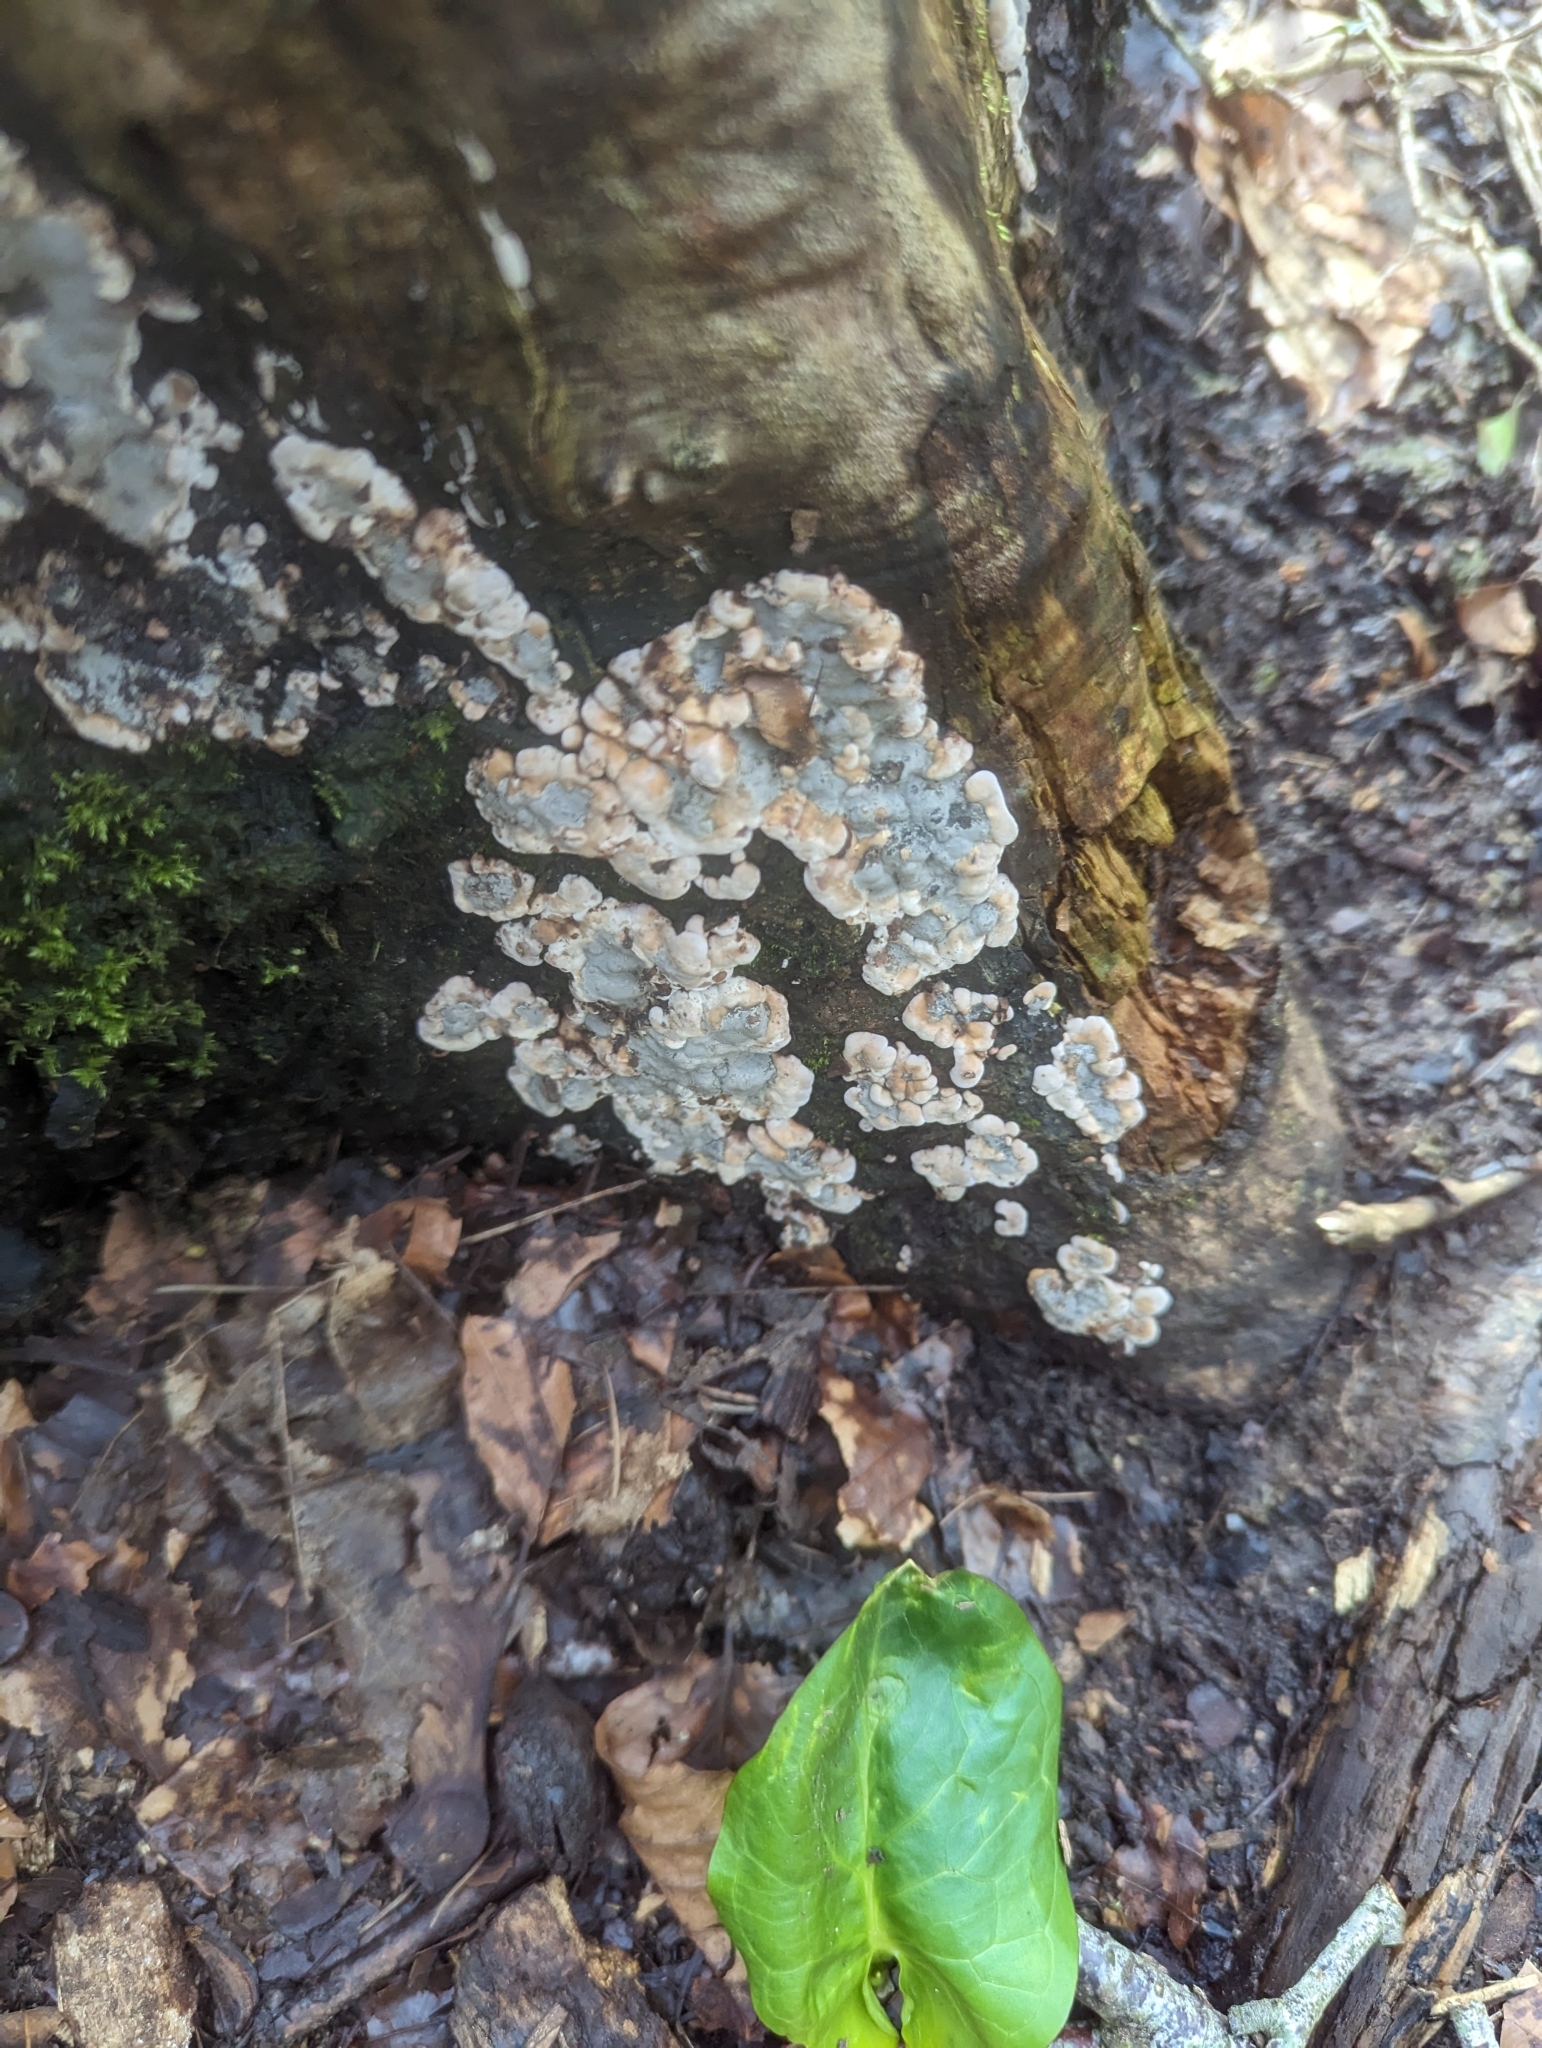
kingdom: Fungi
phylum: Ascomycota
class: Sordariomycetes
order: Xylariales
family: Xylariaceae
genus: Kretzschmaria
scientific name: Kretzschmaria deusta
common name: Brittle cinder
